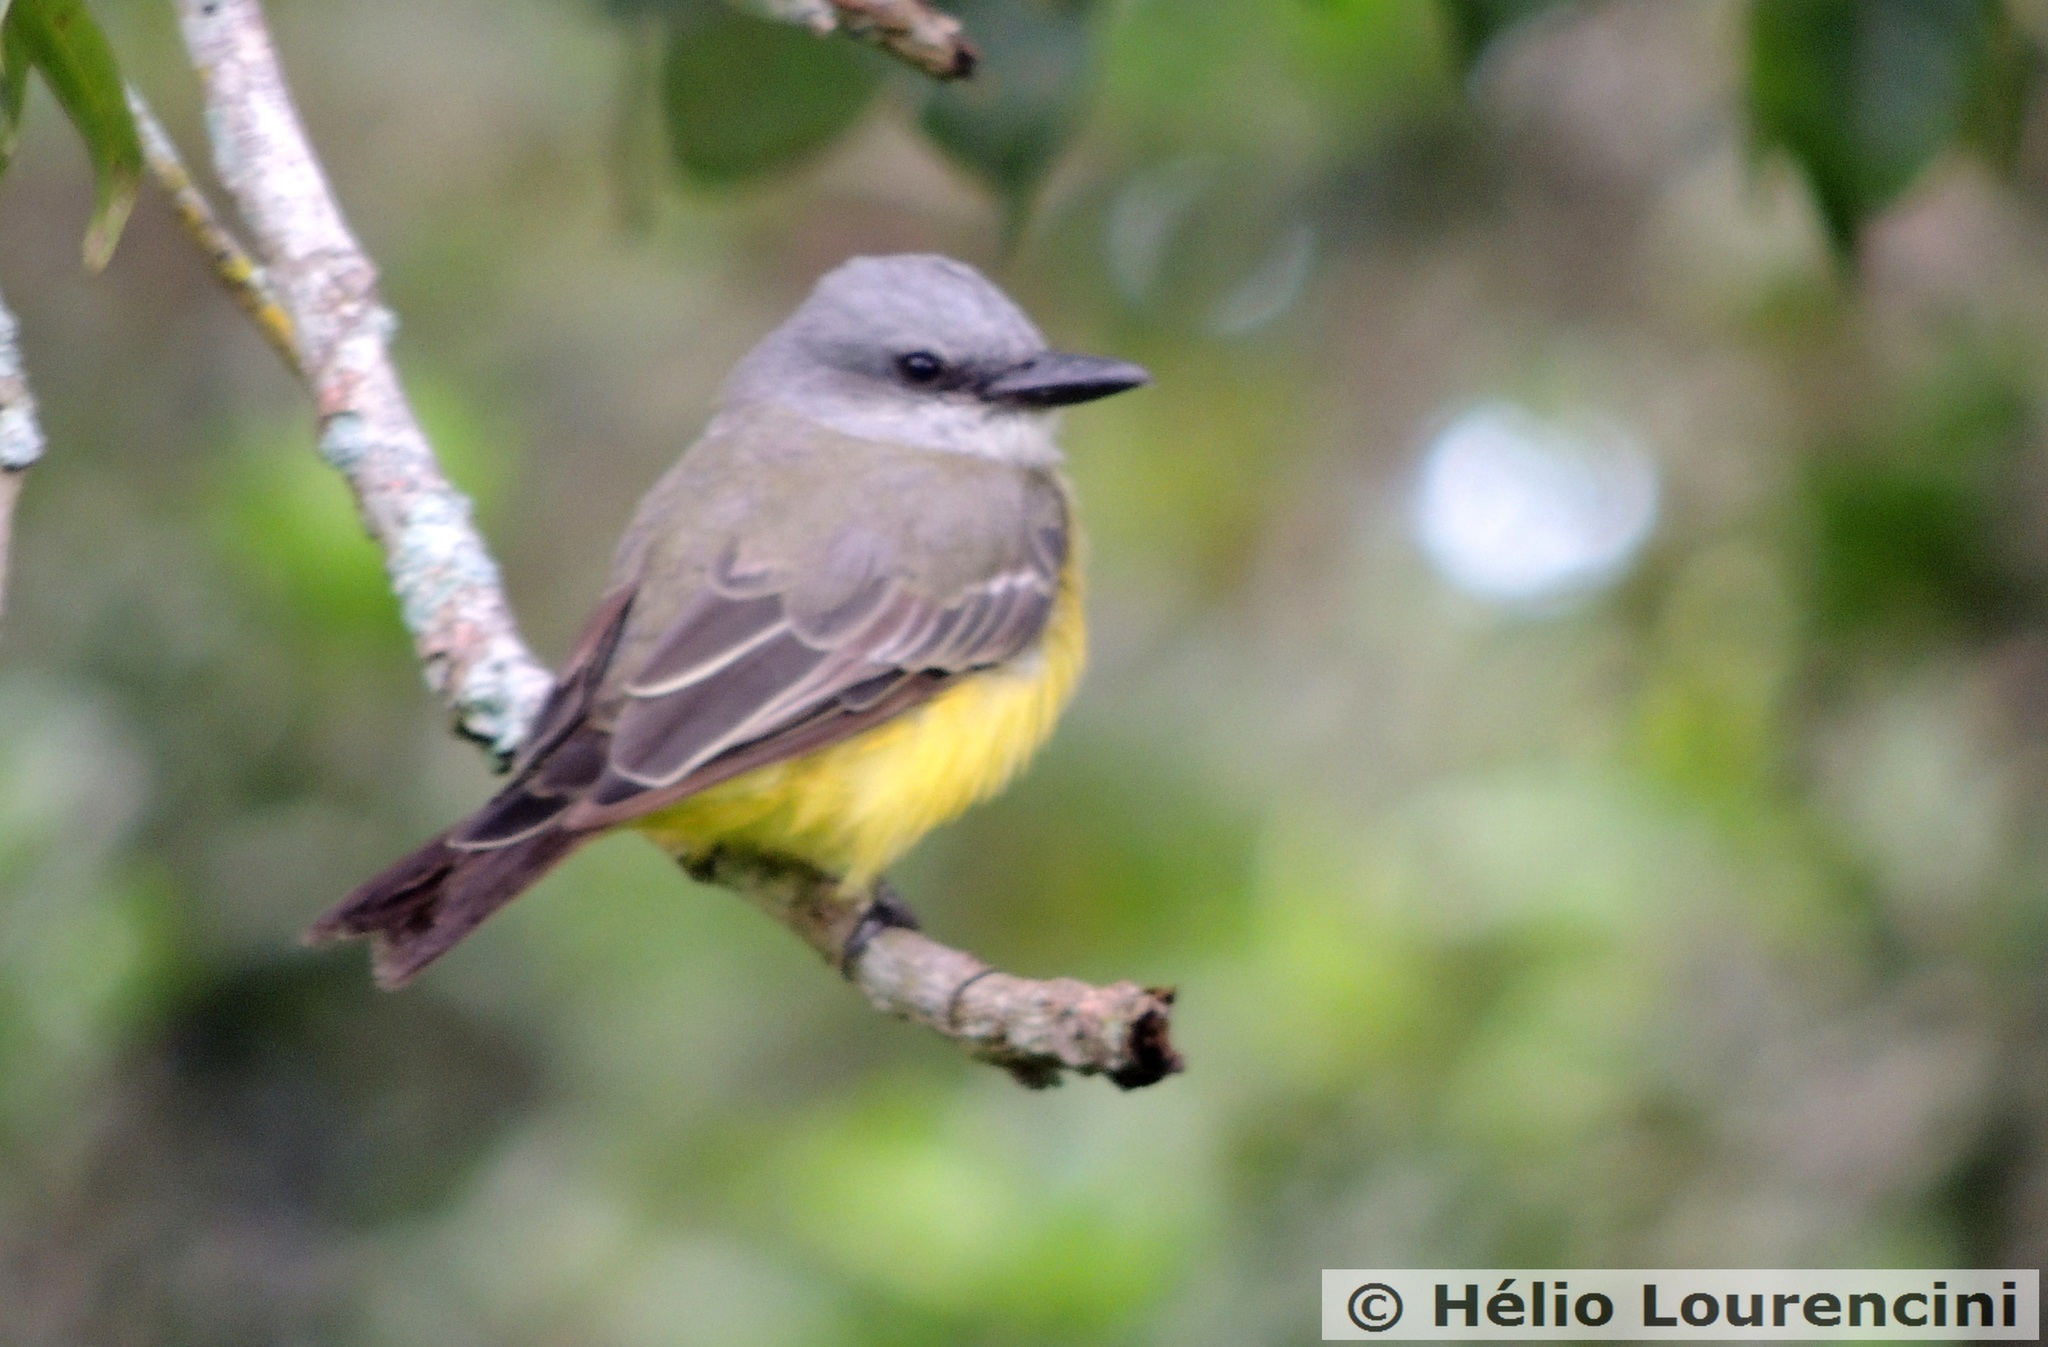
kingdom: Animalia
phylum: Chordata
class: Aves
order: Passeriformes
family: Tyrannidae
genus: Tyrannus
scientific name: Tyrannus melancholicus
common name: Tropical kingbird
